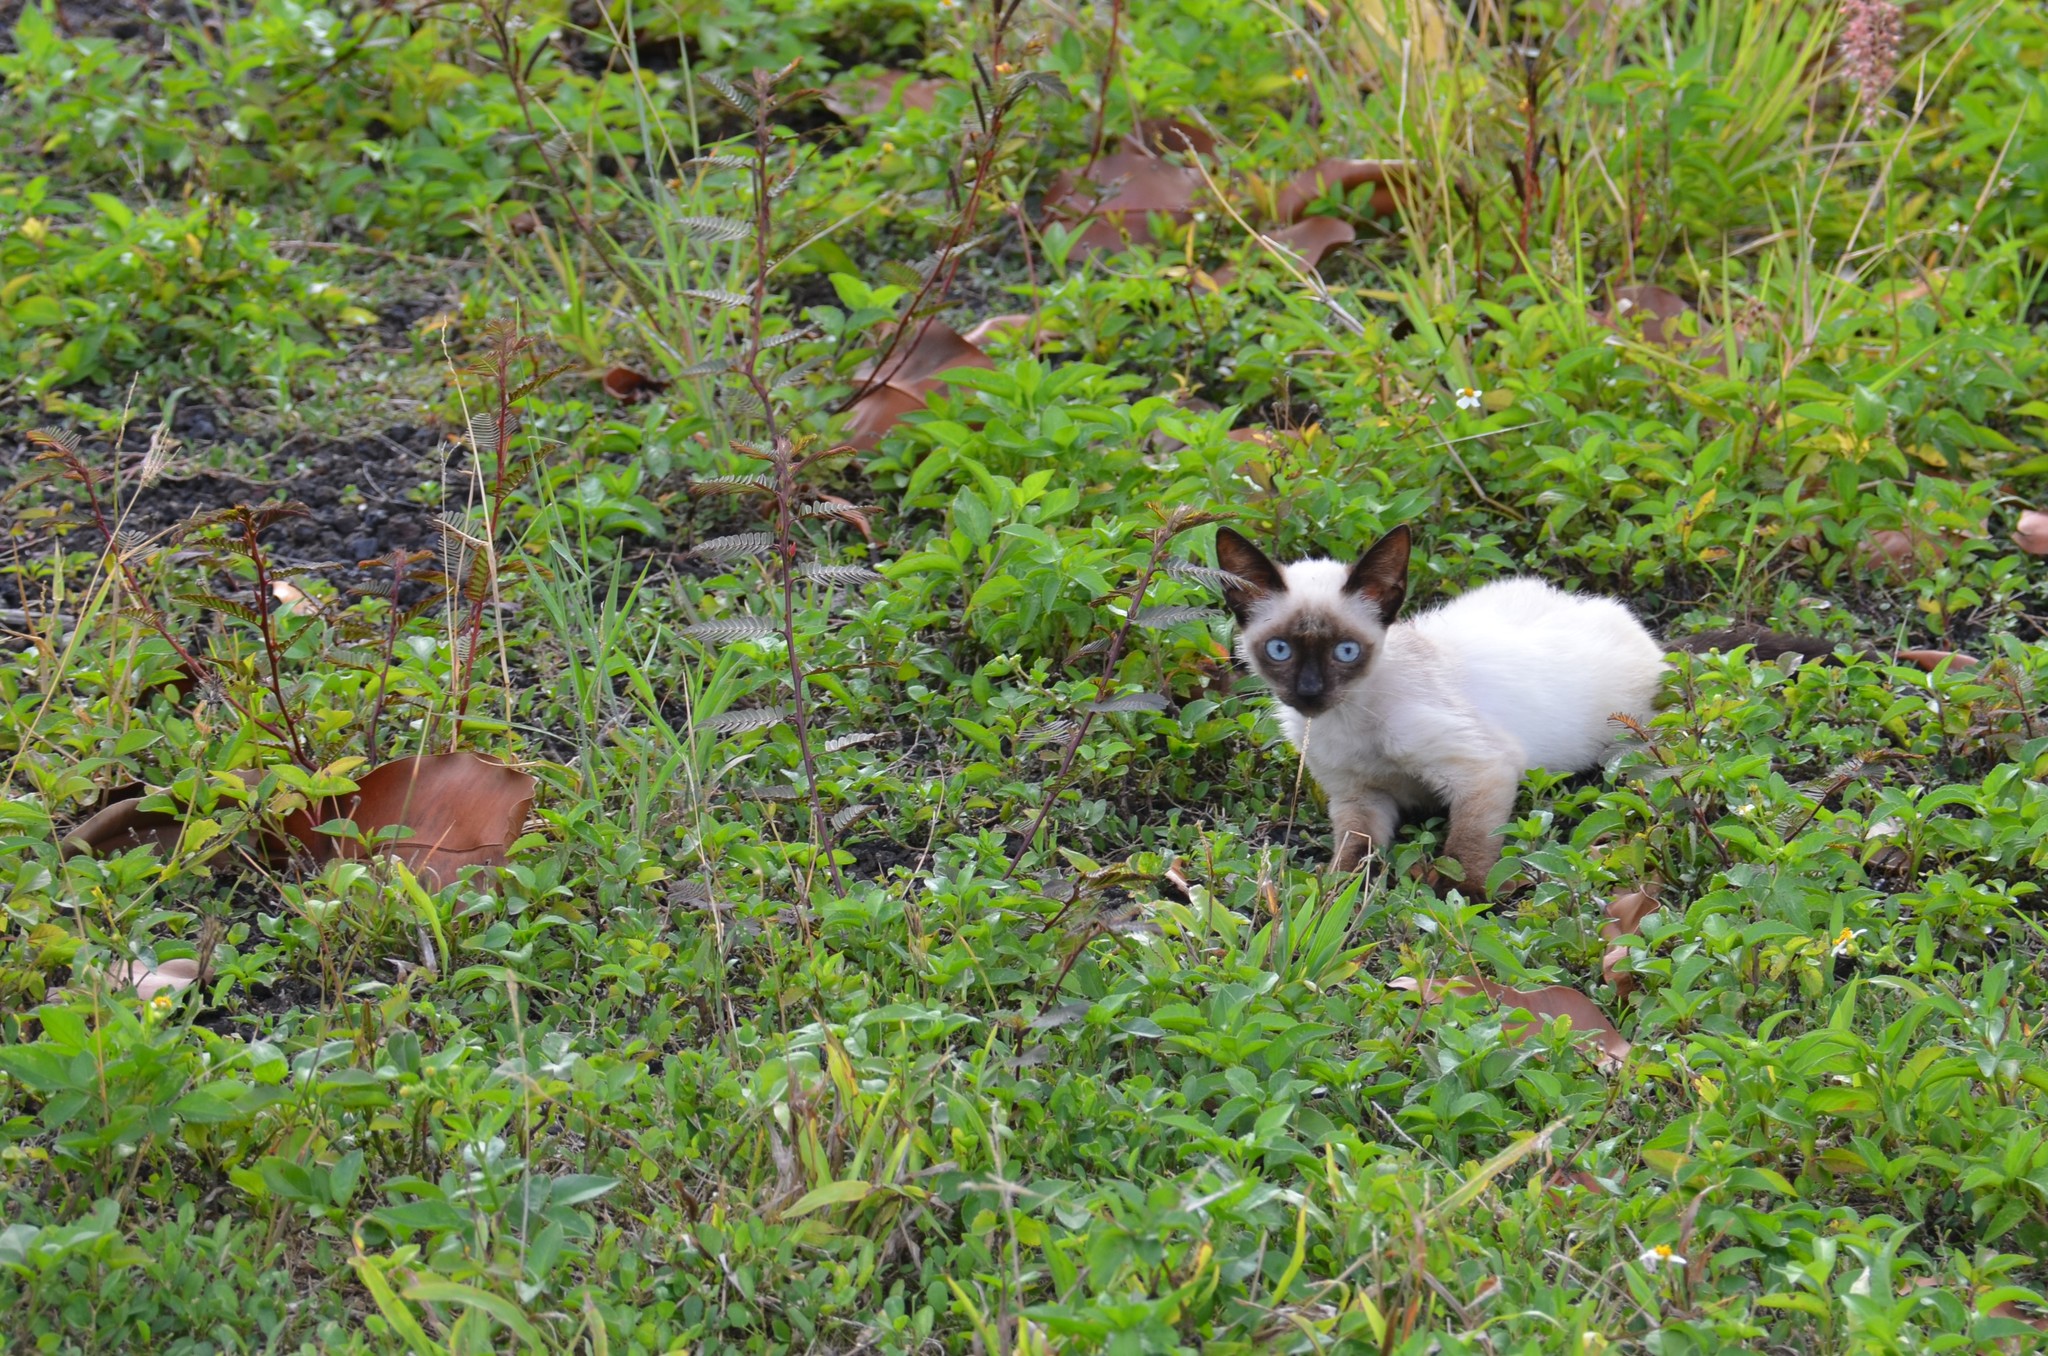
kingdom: Animalia
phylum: Chordata
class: Mammalia
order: Carnivora
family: Felidae
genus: Felis
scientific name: Felis catus
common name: Domestic cat
